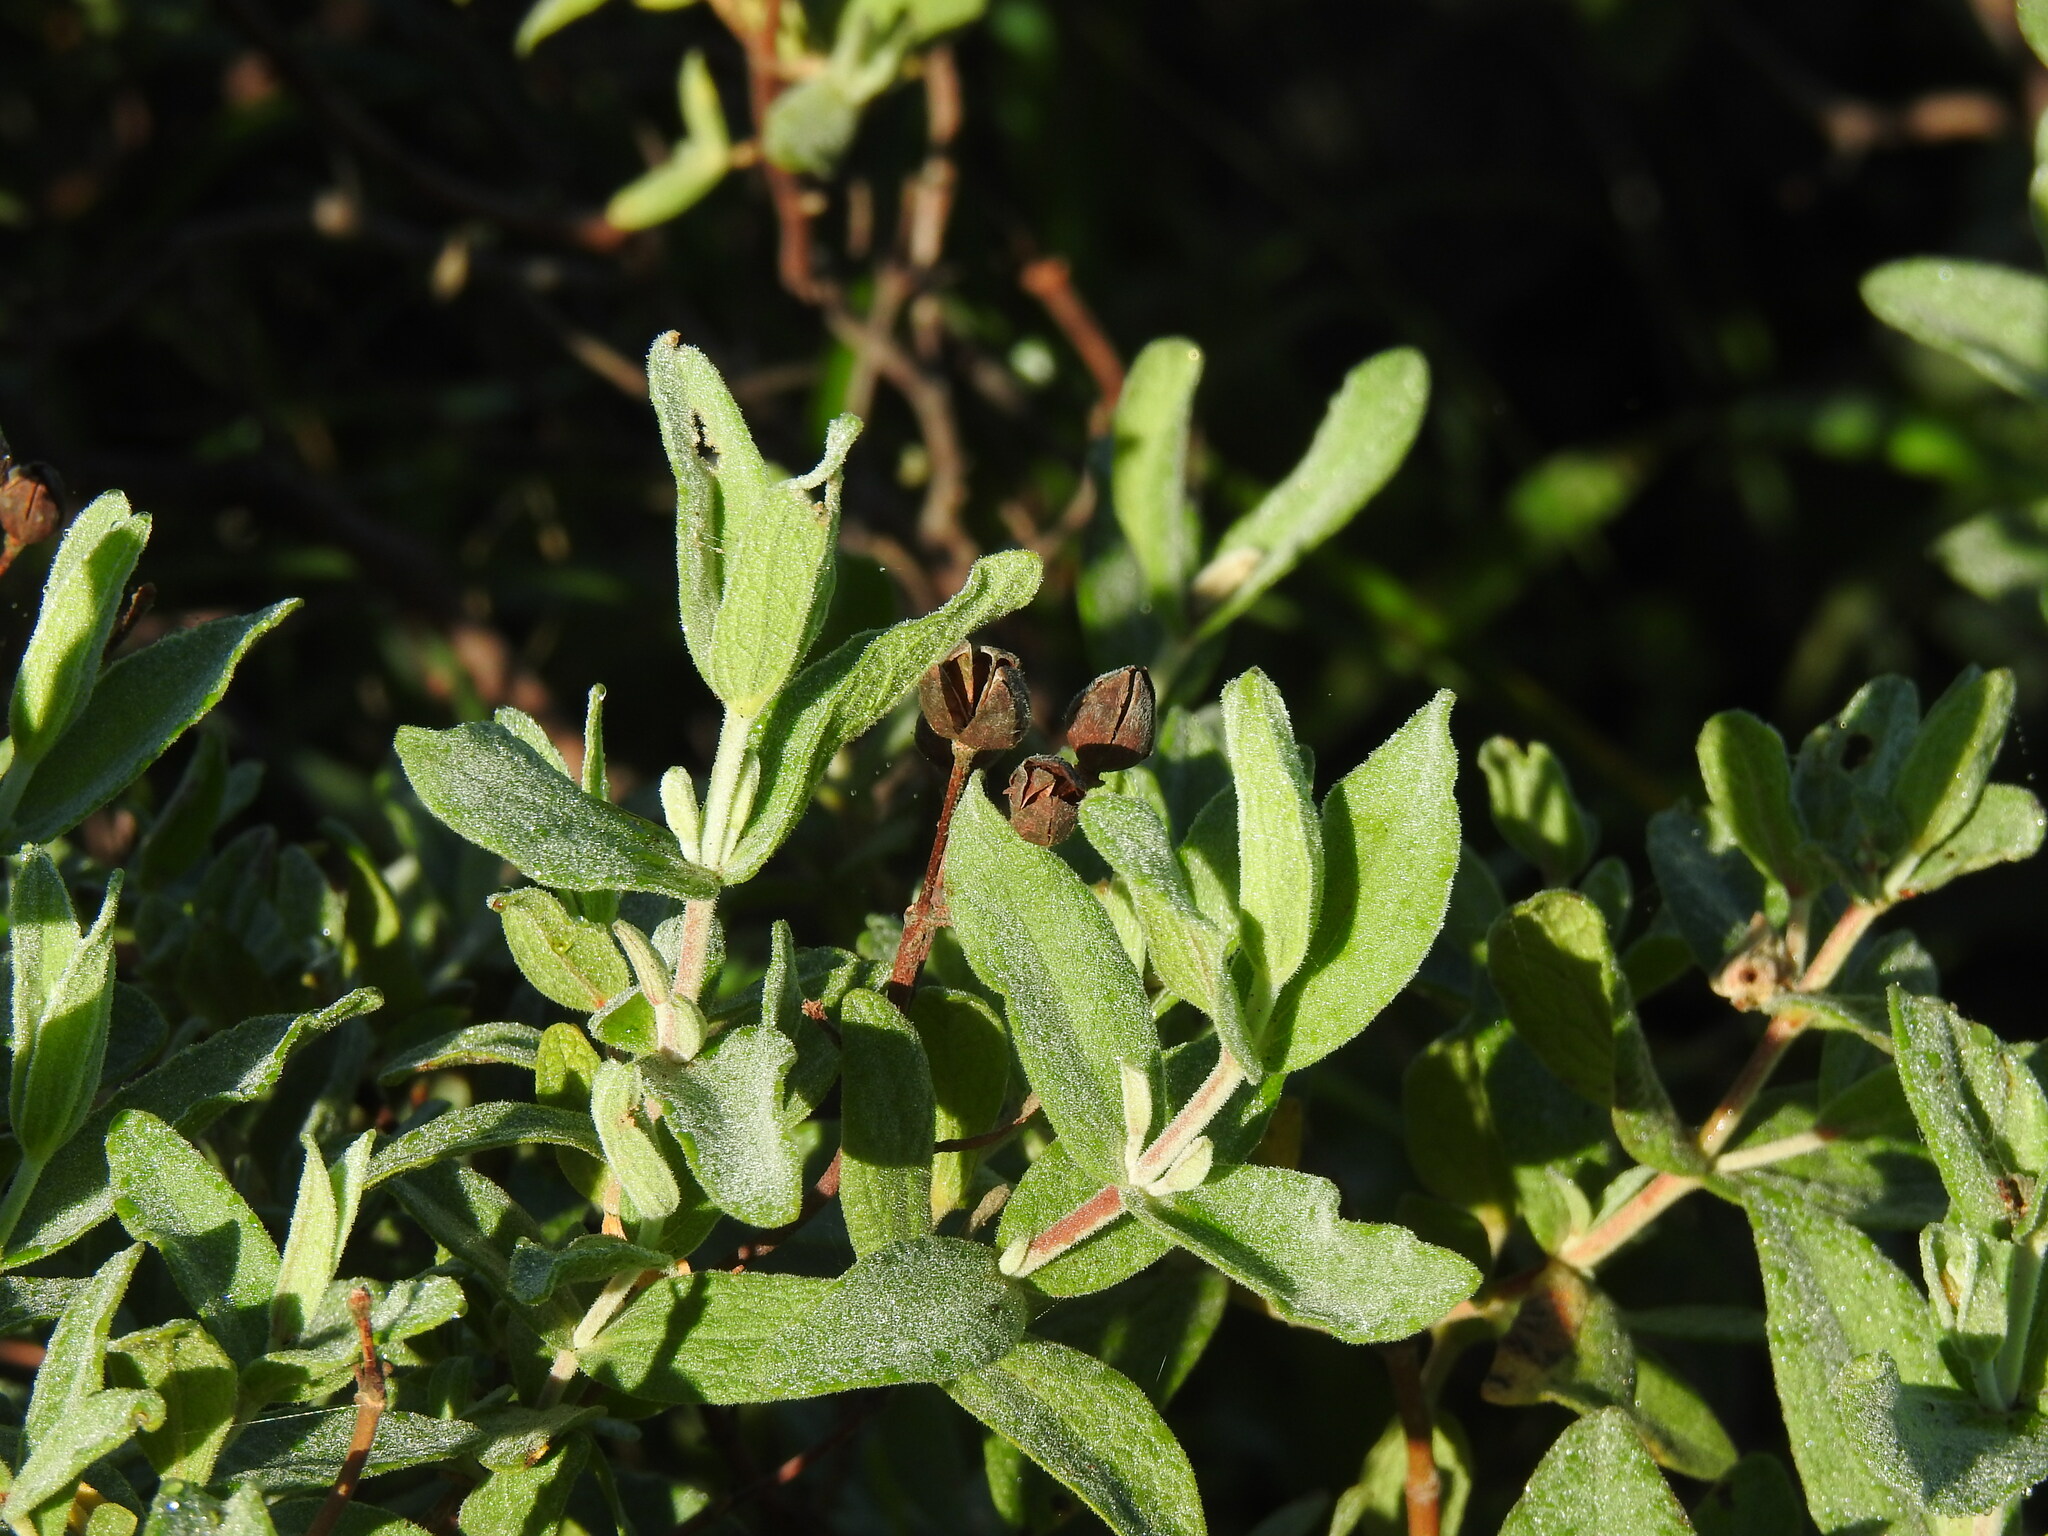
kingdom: Plantae
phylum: Tracheophyta
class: Magnoliopsida
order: Malvales
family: Cistaceae
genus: Cistus
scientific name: Cistus albidus
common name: White-leaf rock-rose
